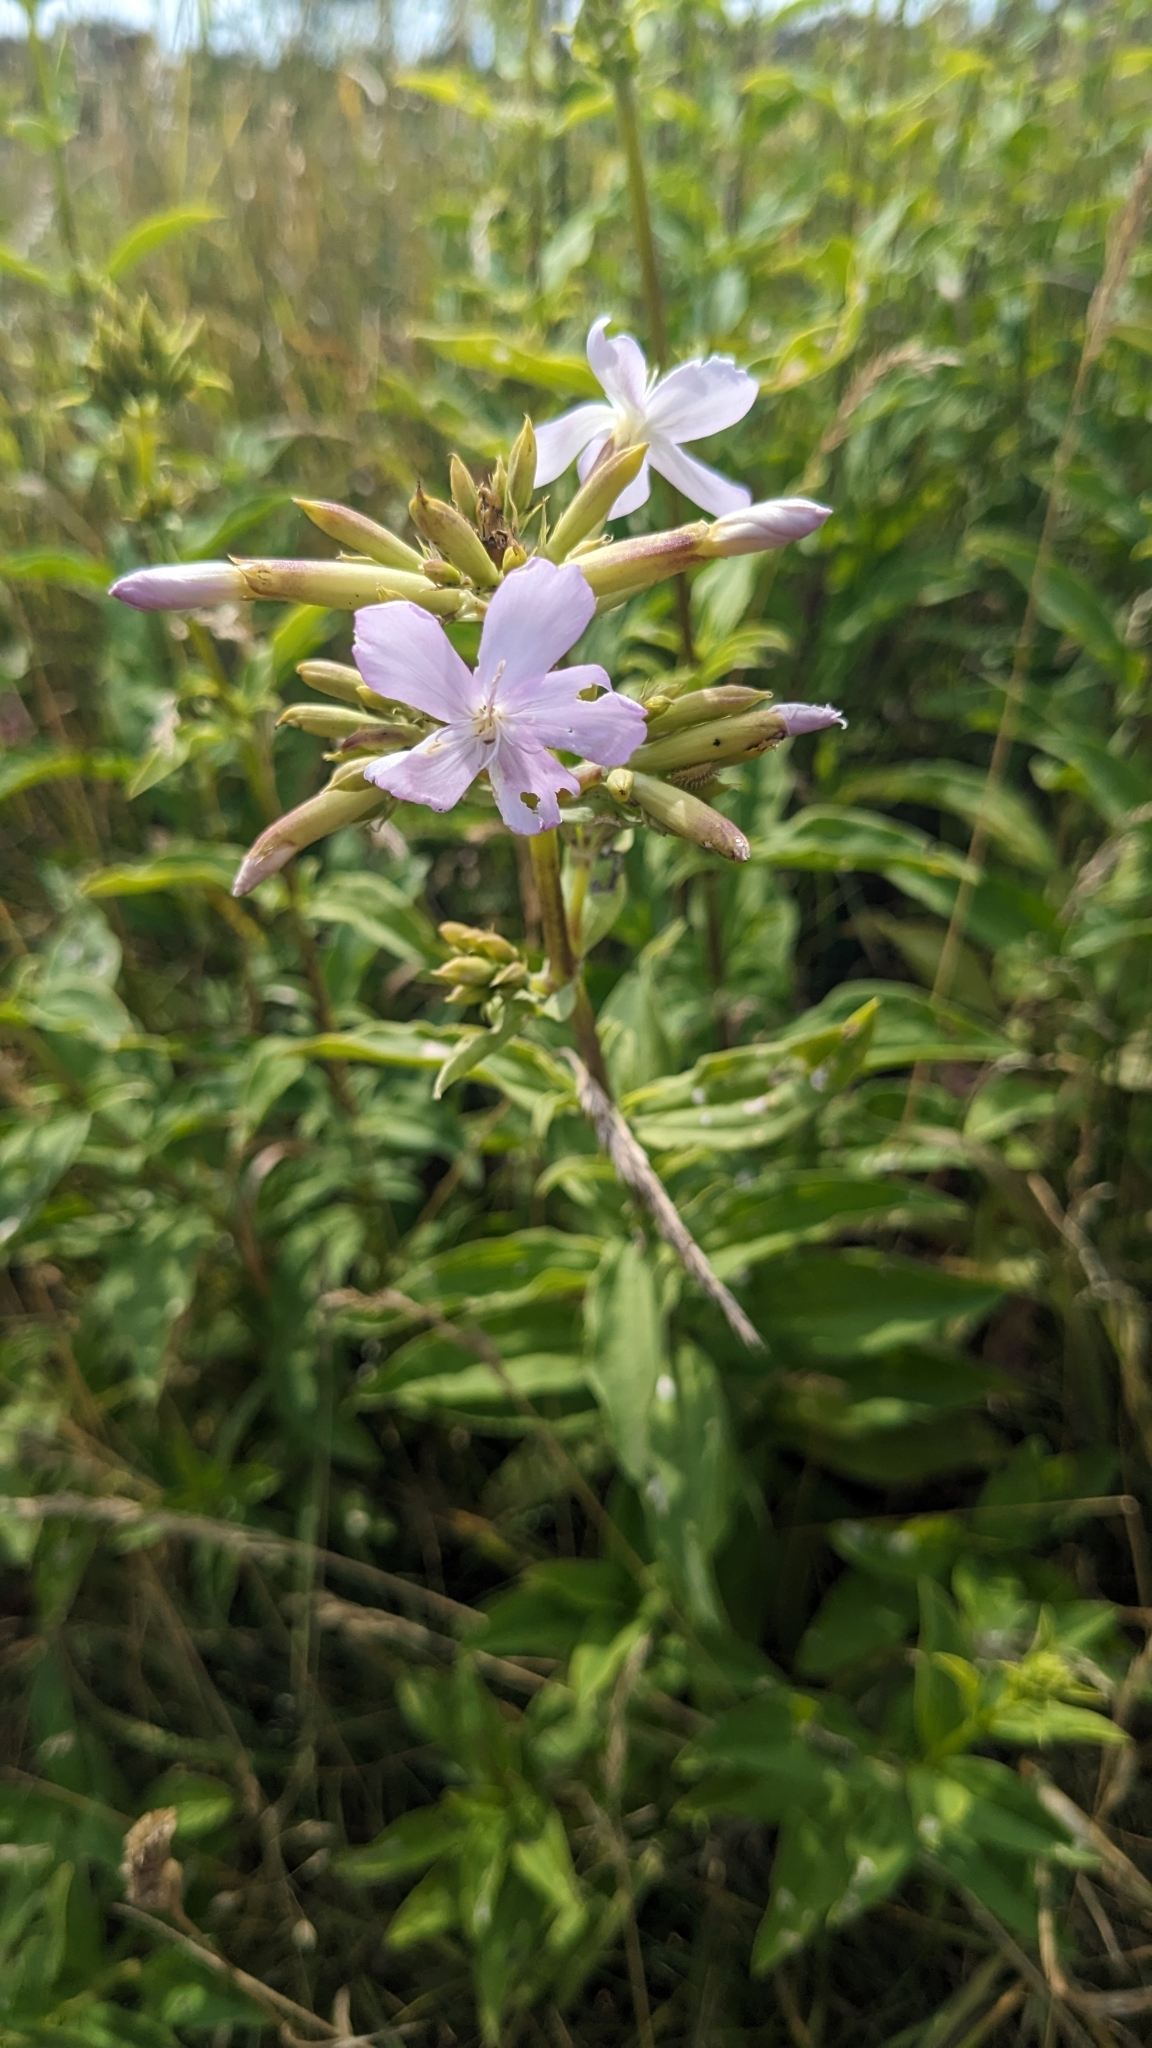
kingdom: Plantae
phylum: Tracheophyta
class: Magnoliopsida
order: Caryophyllales
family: Caryophyllaceae
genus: Saponaria
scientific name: Saponaria officinalis
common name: Soapwort
